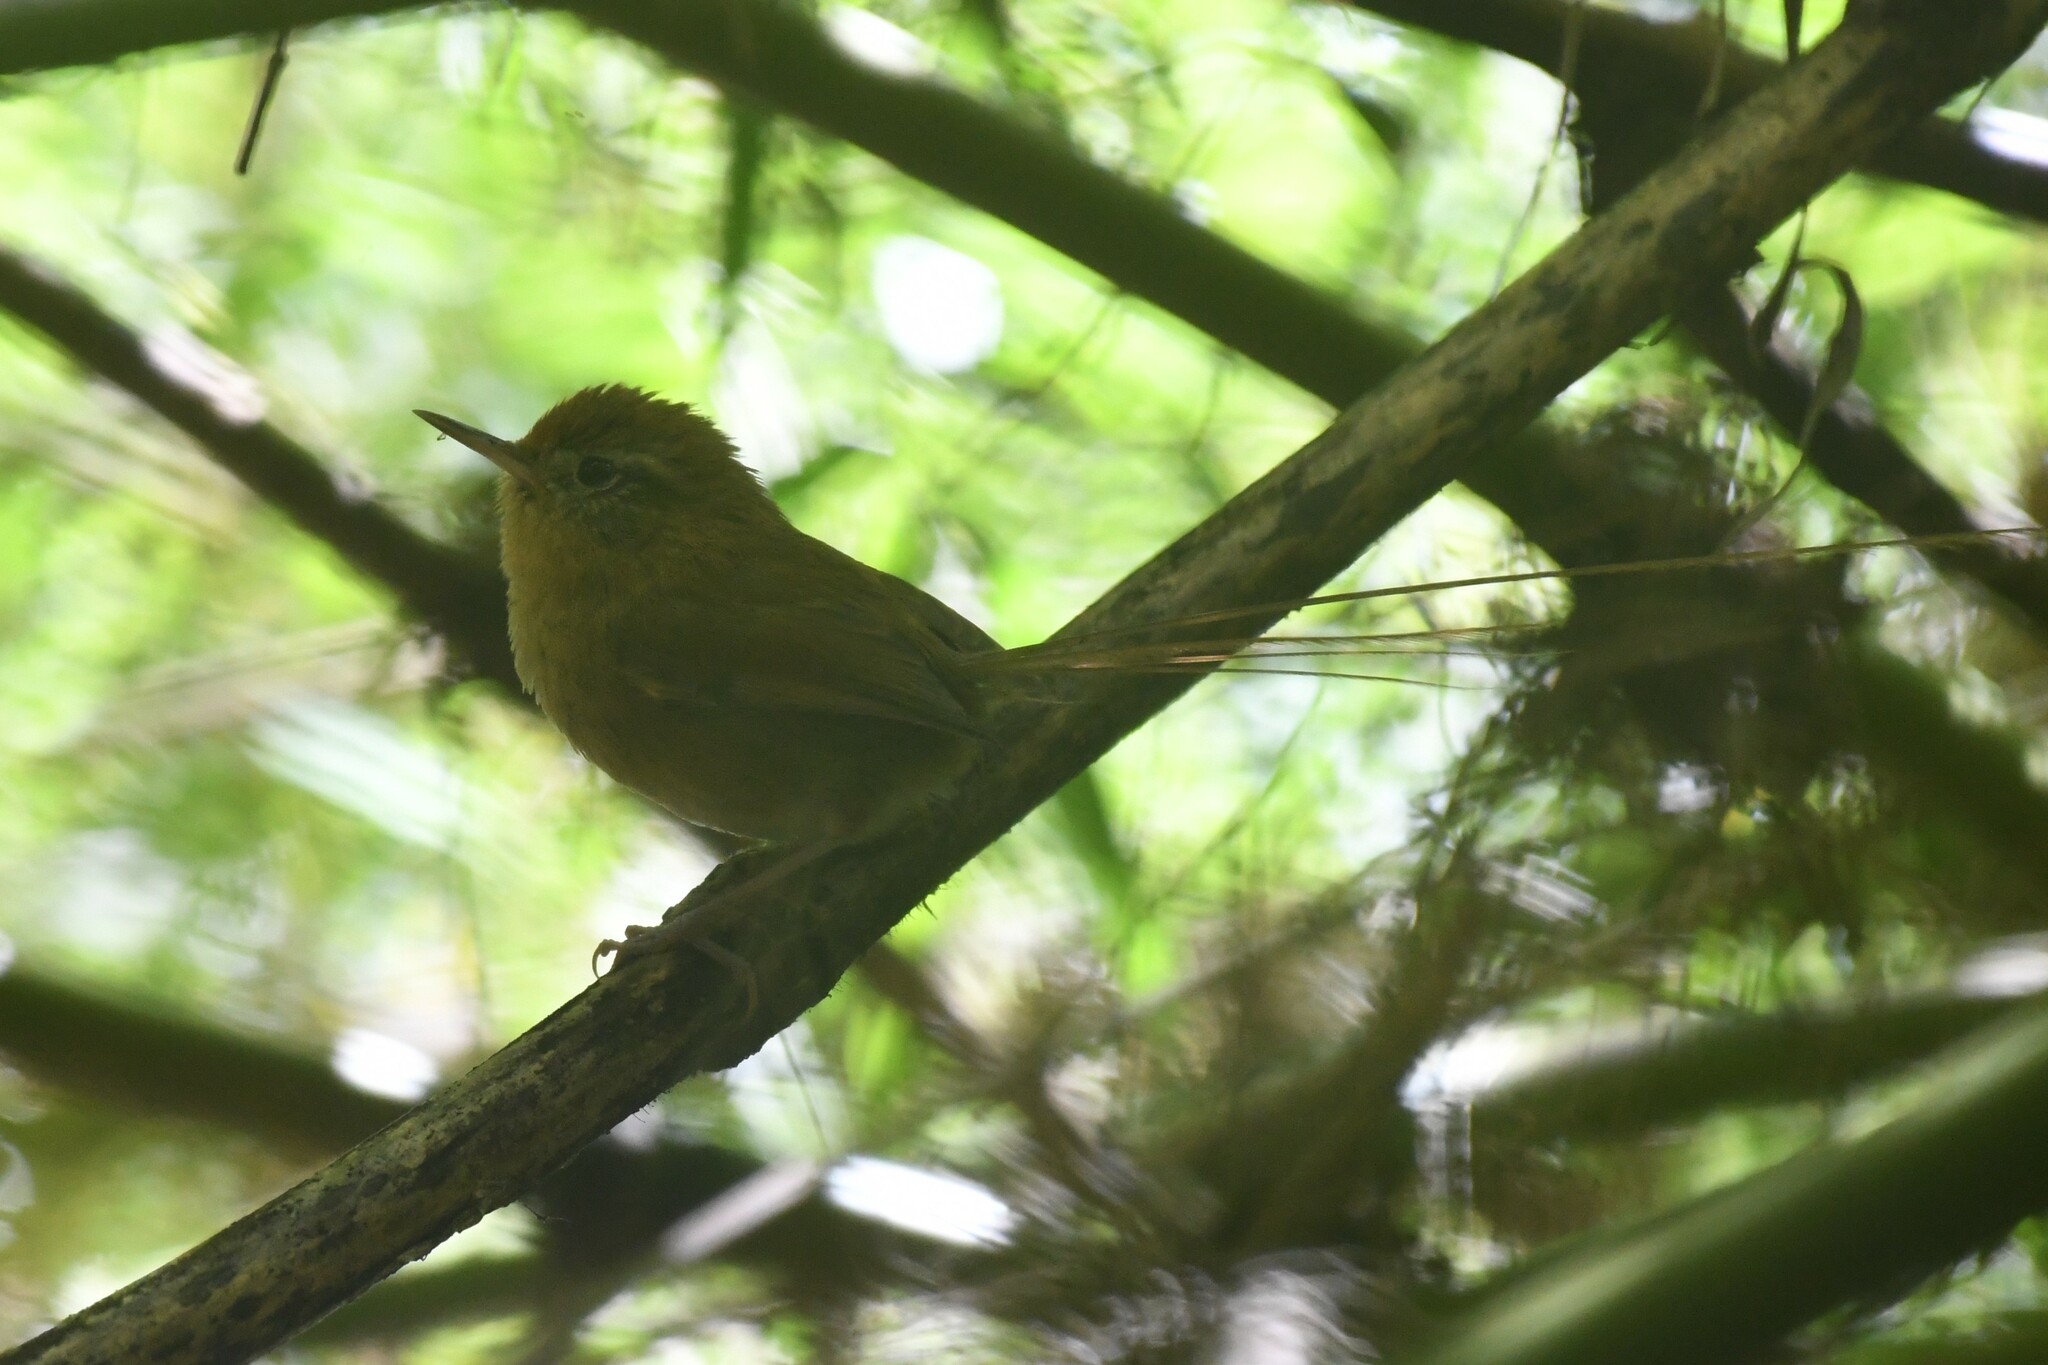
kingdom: Animalia
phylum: Chordata
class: Aves
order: Passeriformes
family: Furnariidae
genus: Sylviorthorhynchus
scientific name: Sylviorthorhynchus desmursii
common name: Des murs's wiretail
